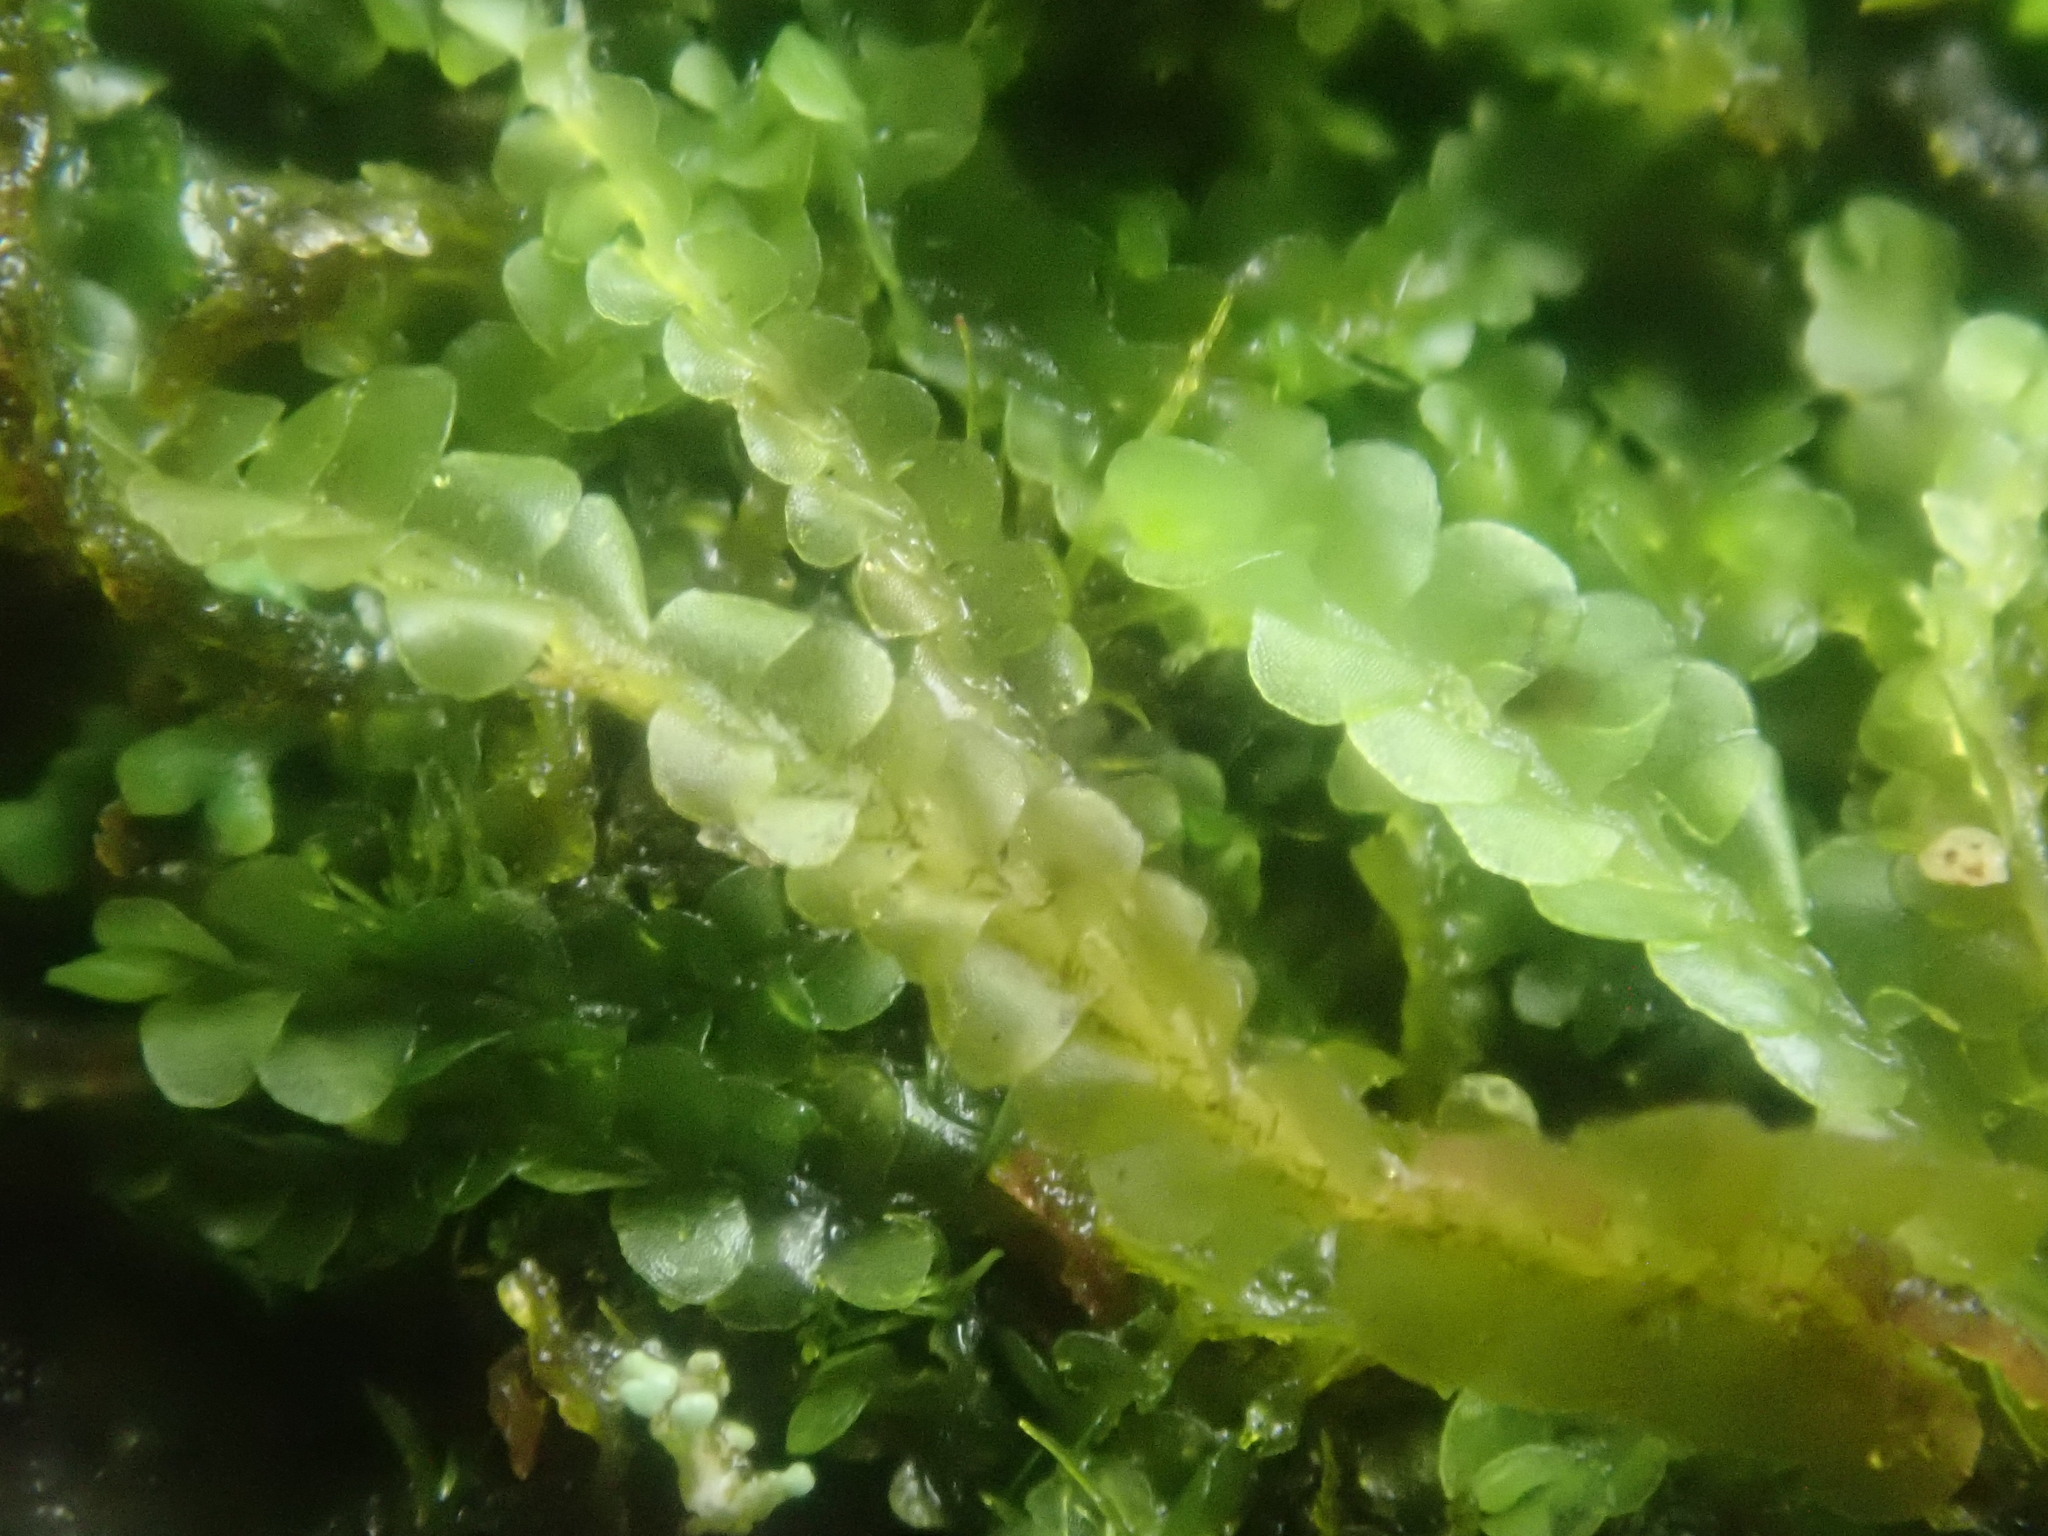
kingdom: Plantae
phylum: Marchantiophyta
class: Jungermanniopsida
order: Jungermanniales
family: Adelanthaceae
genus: Syzygiella
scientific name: Syzygiella autumnalis
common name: Jameson's liverwort
